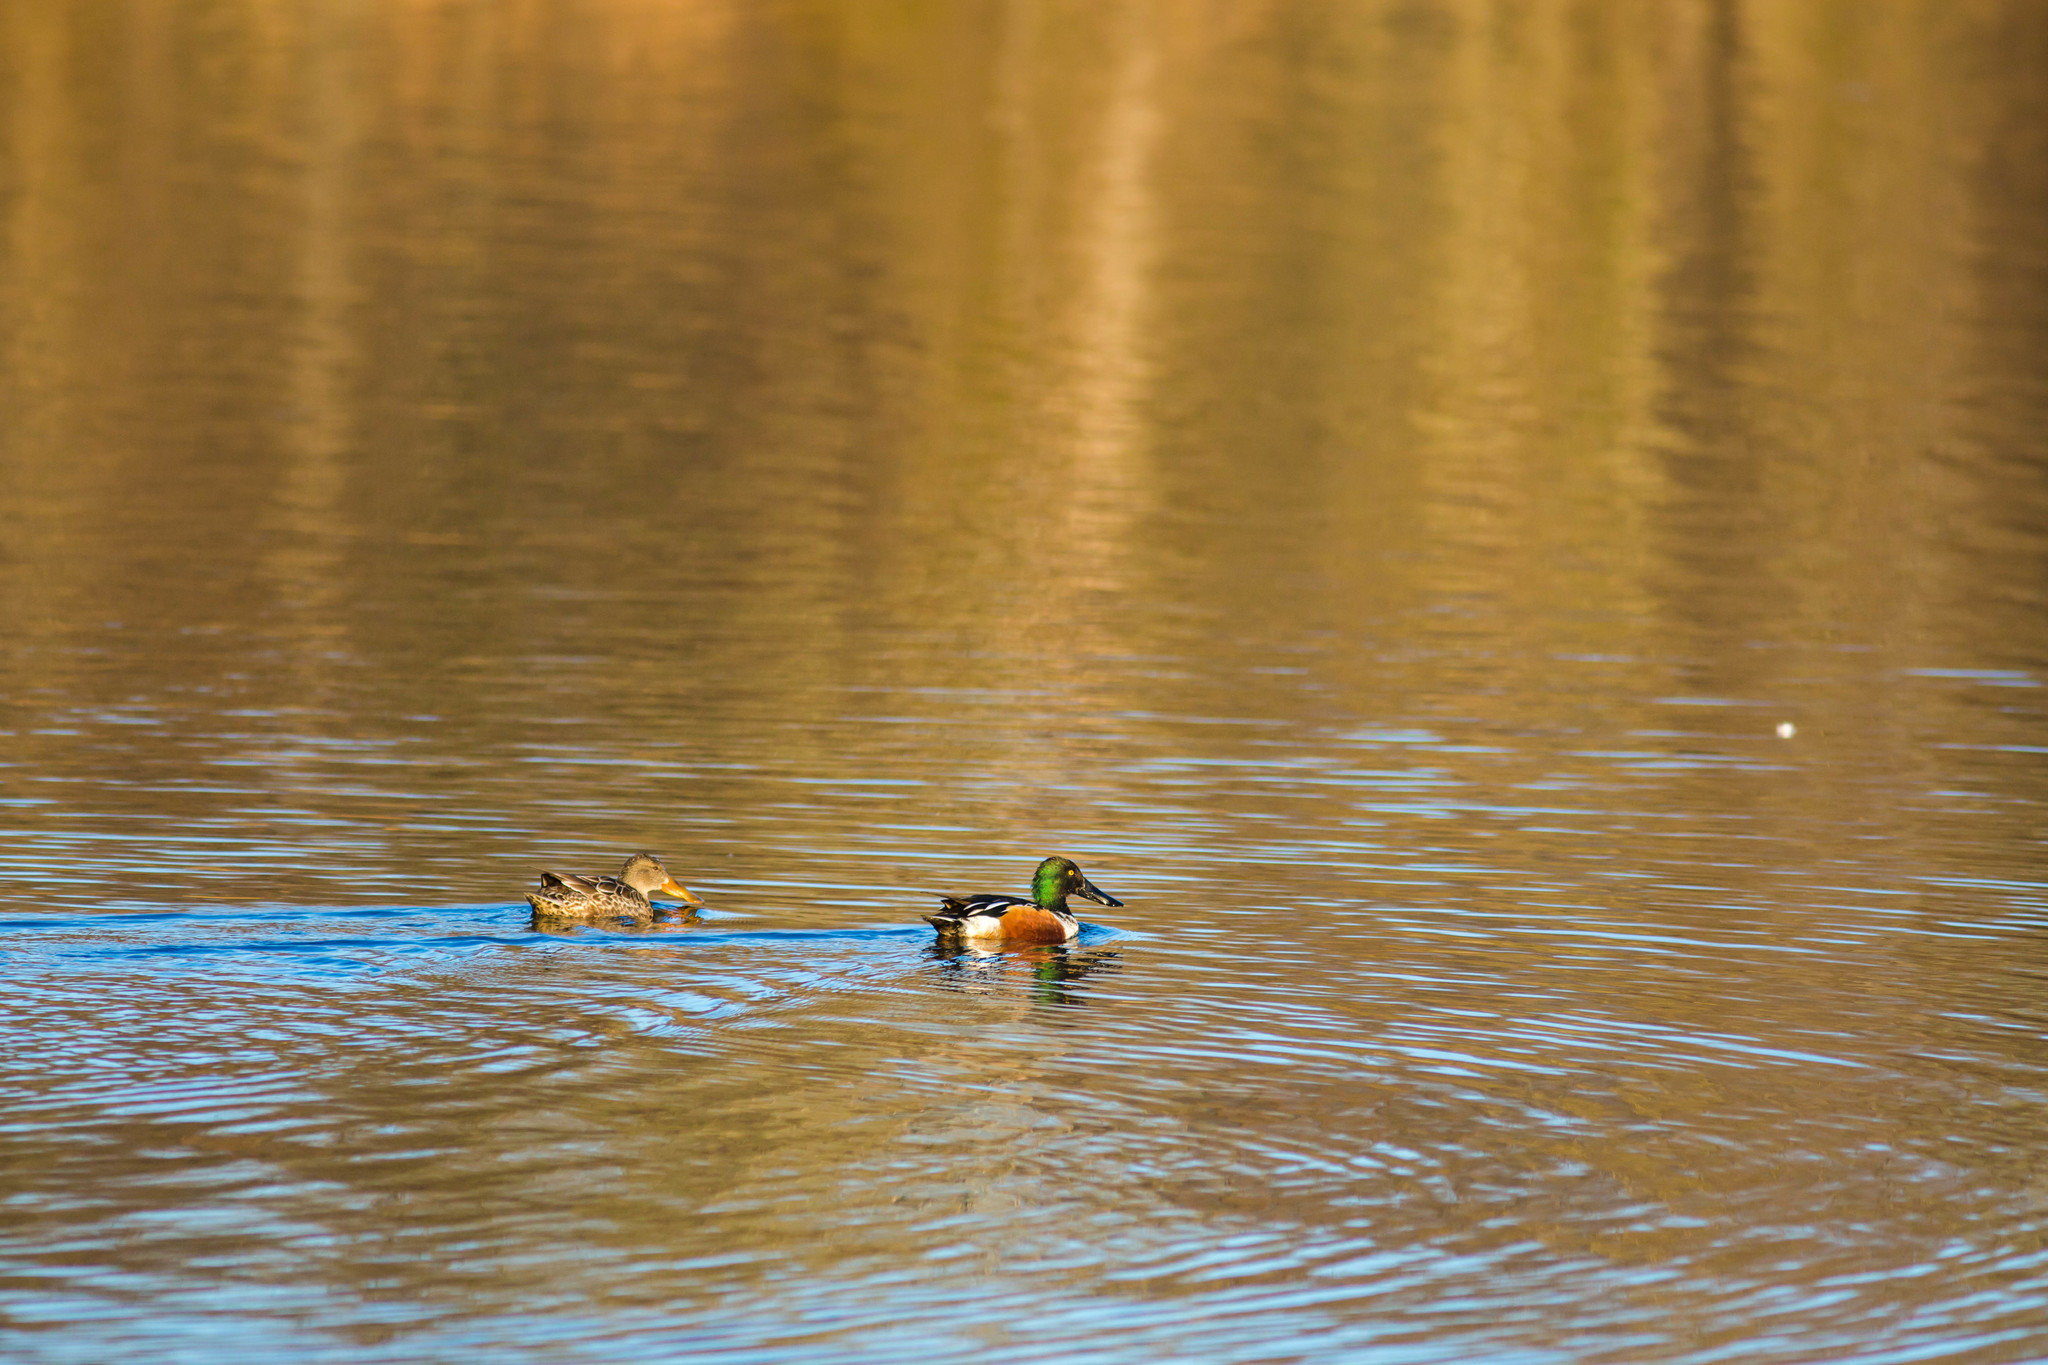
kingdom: Animalia
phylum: Chordata
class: Aves
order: Anseriformes
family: Anatidae
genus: Spatula
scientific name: Spatula clypeata
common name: Northern shoveler
